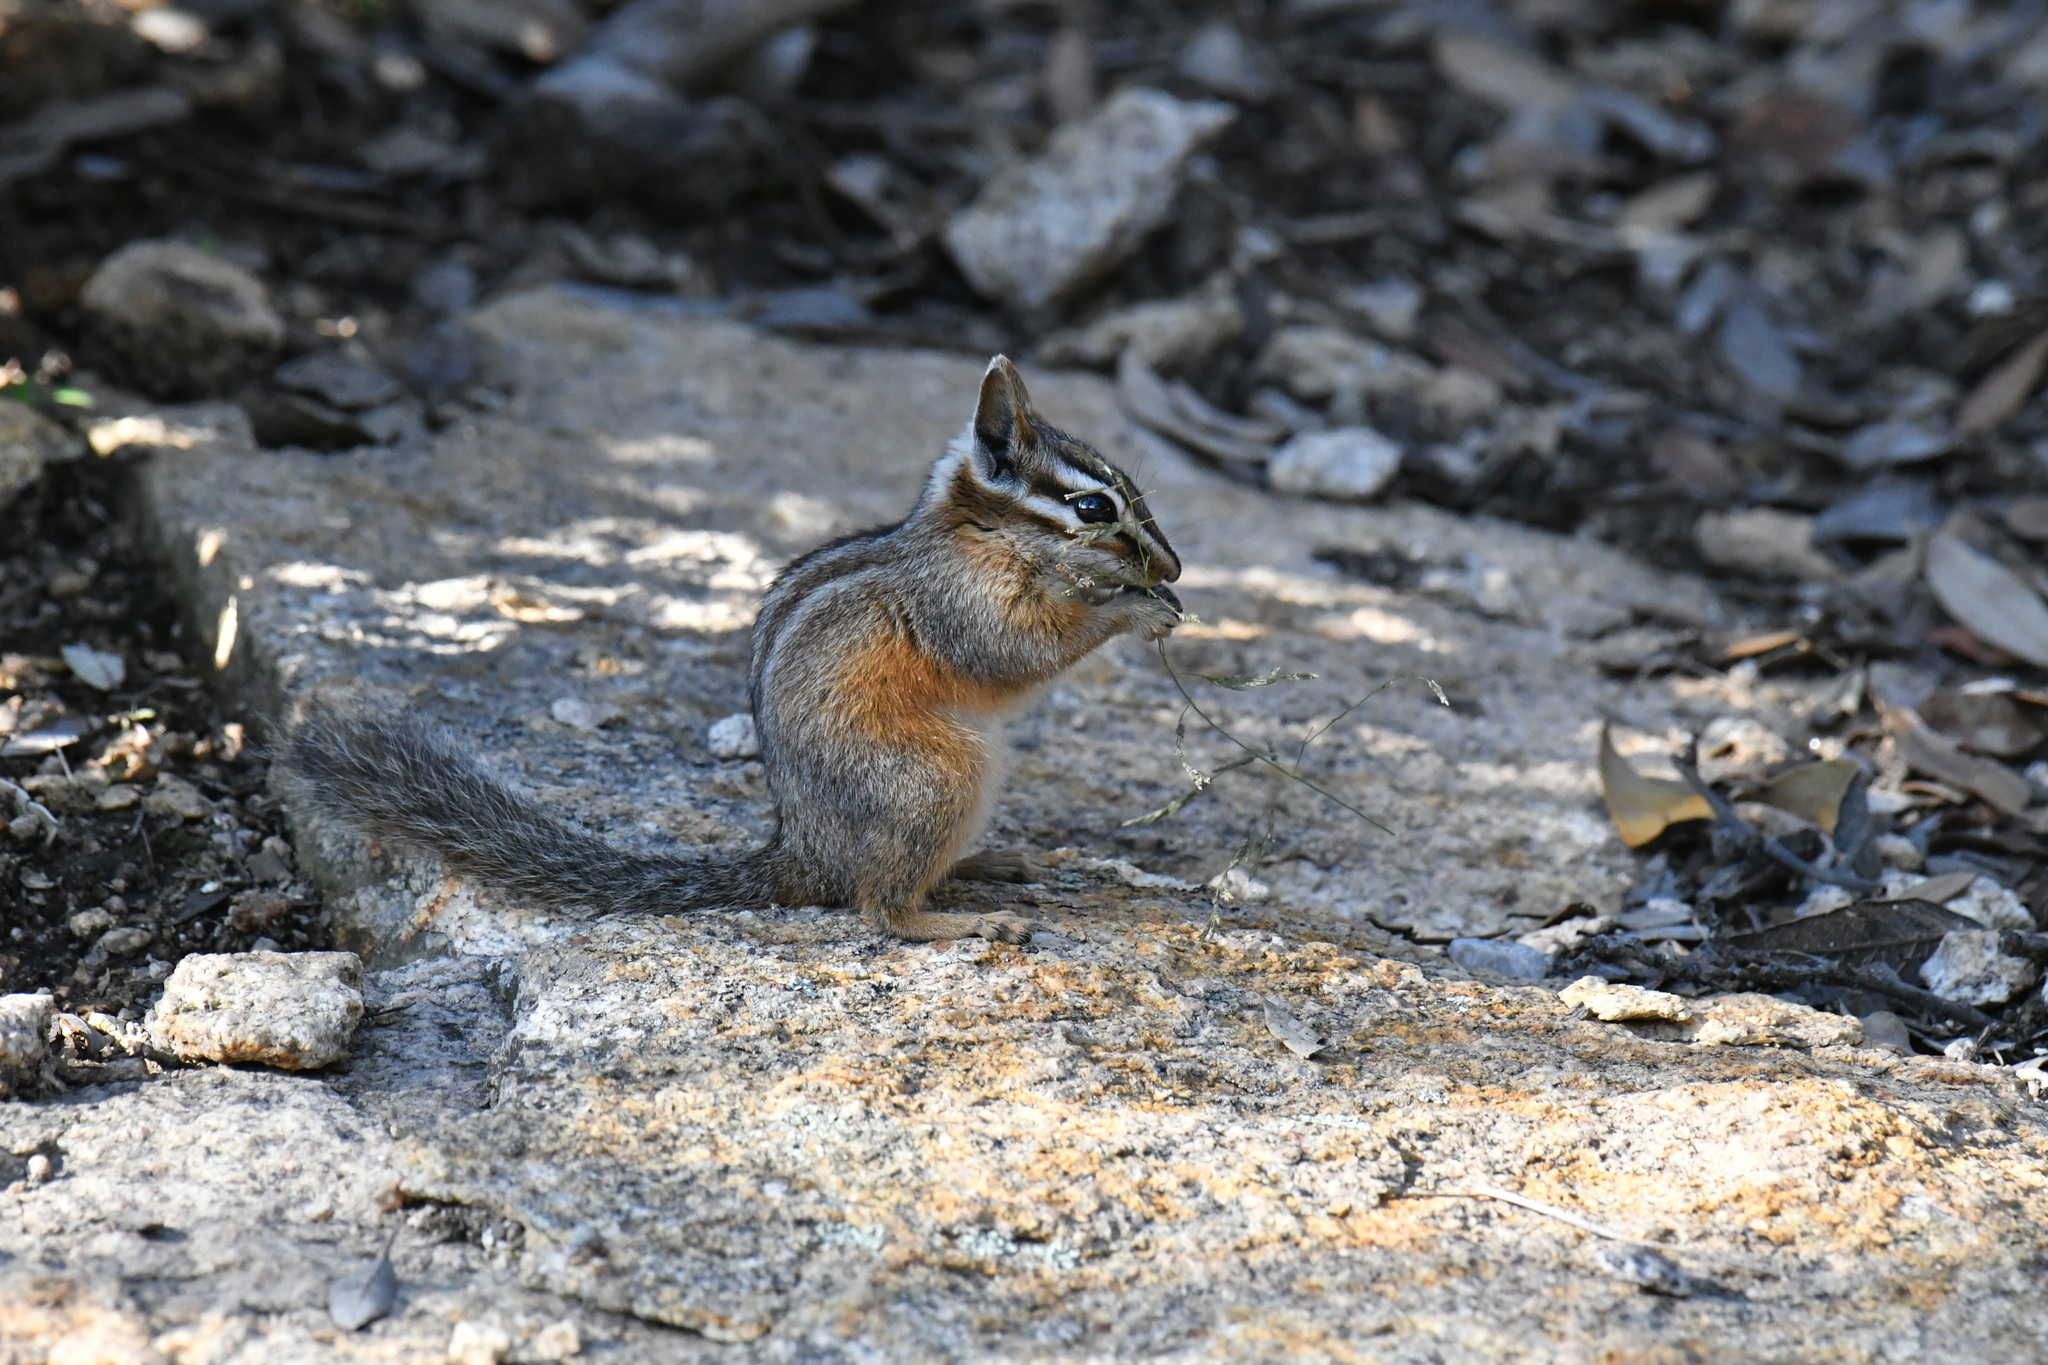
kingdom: Animalia
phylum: Chordata
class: Mammalia
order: Rodentia
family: Sciuridae
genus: Tamias
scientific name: Tamias dorsalis
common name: Cliff chipmunk
